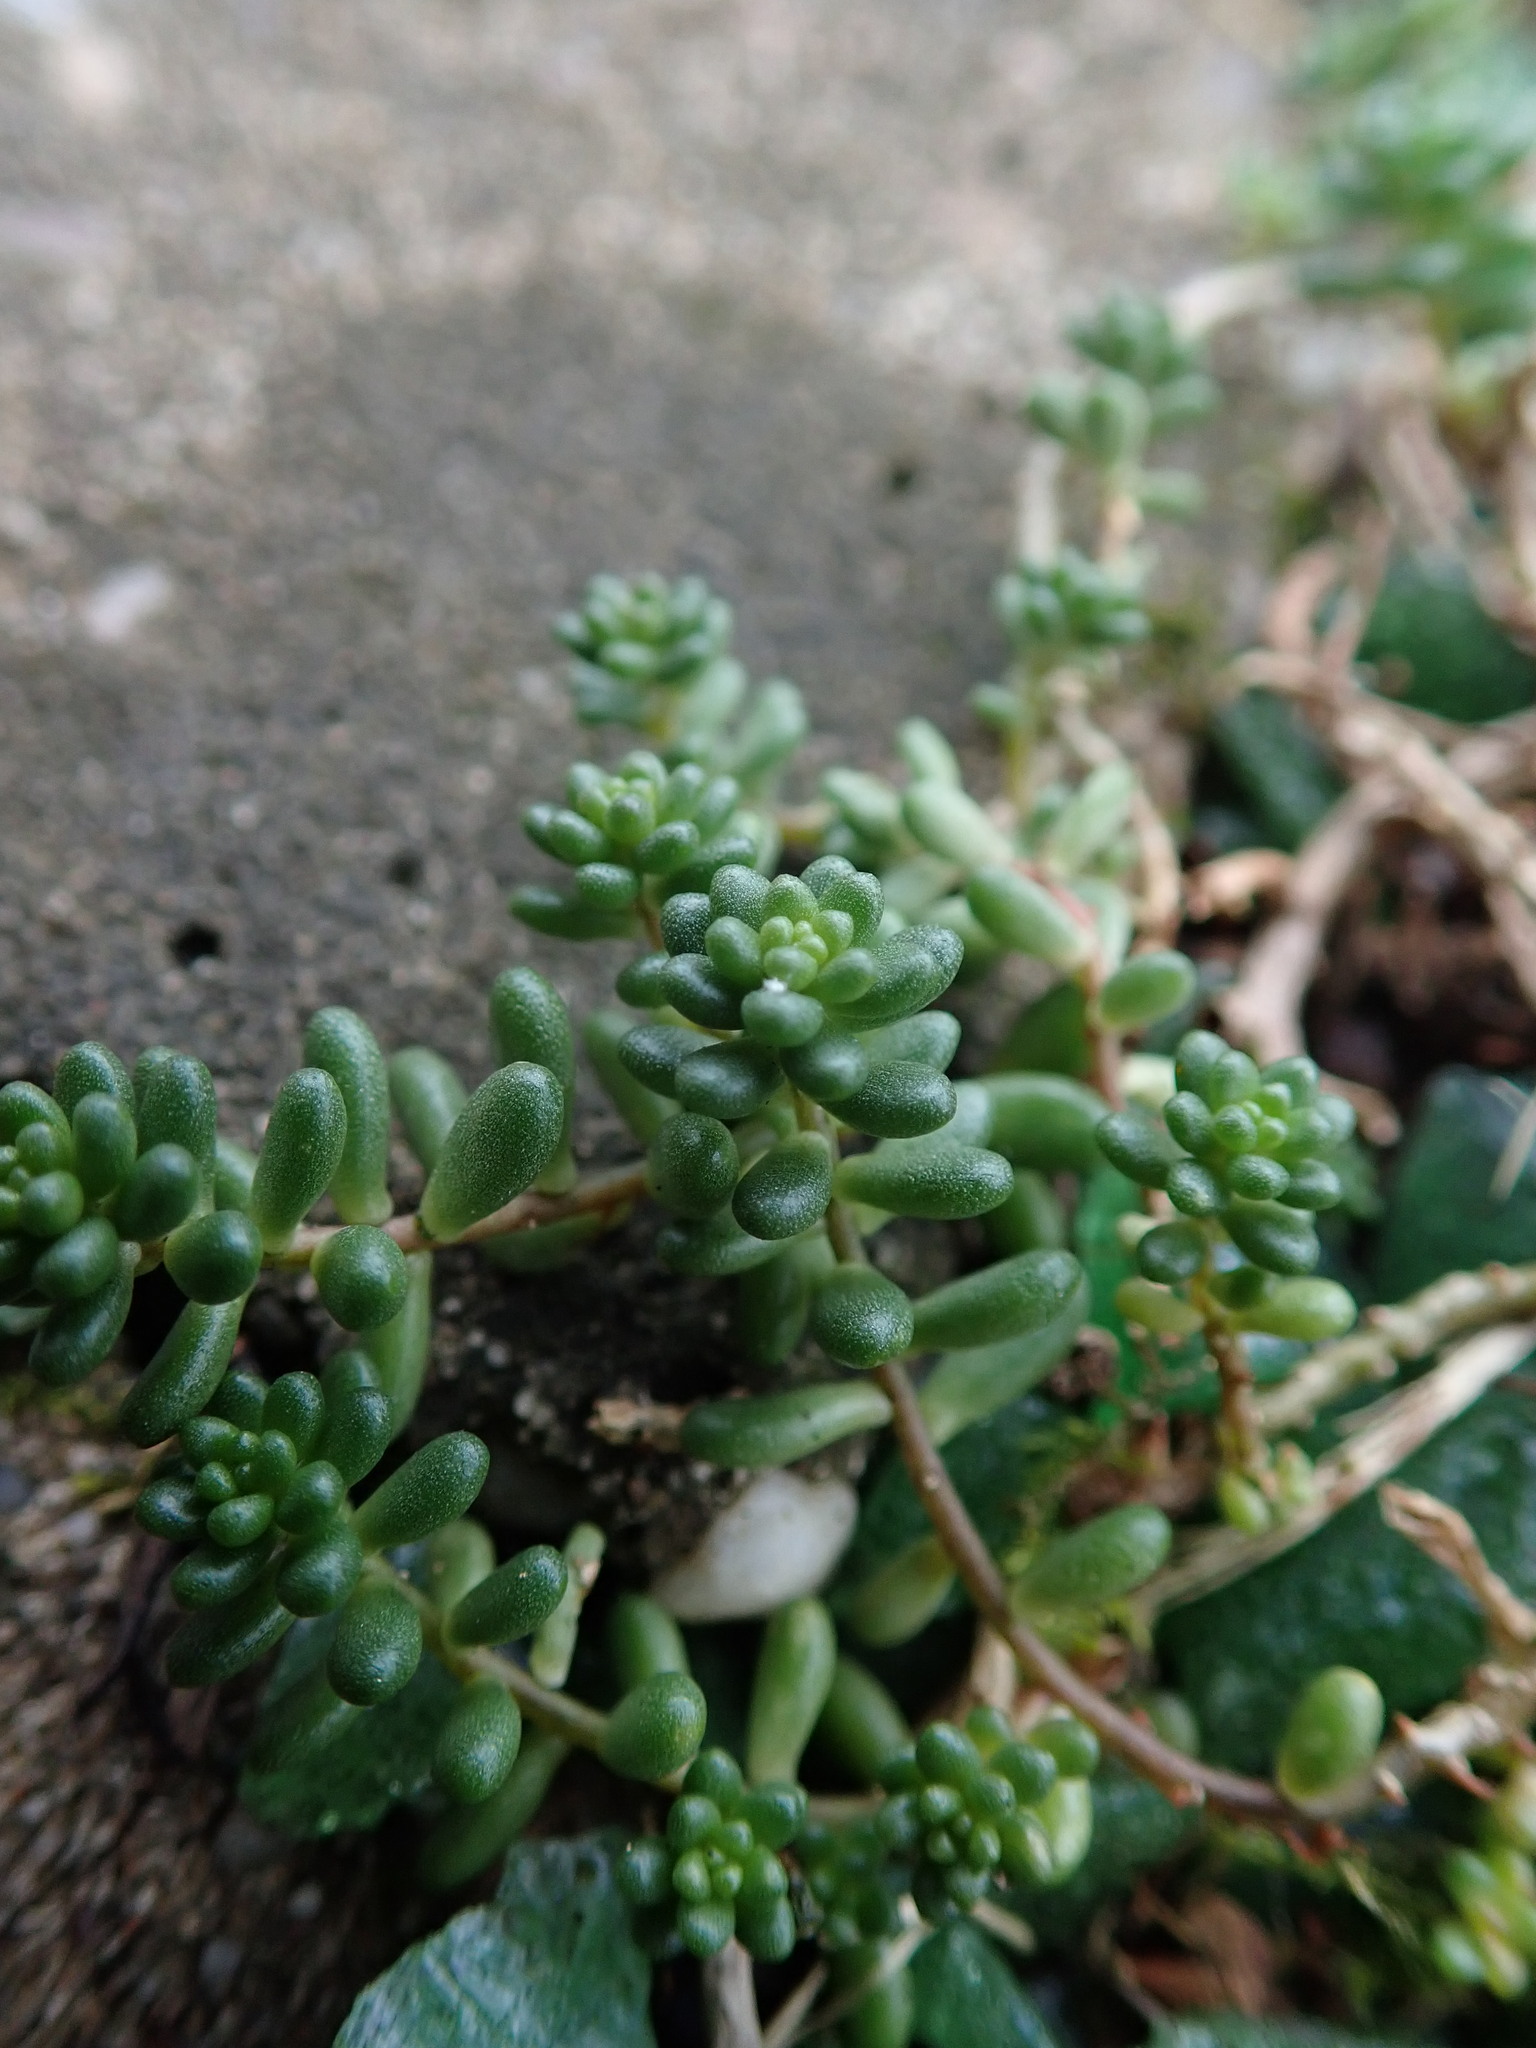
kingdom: Plantae
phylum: Tracheophyta
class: Magnoliopsida
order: Saxifragales
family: Crassulaceae
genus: Sedum
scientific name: Sedum album
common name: White stonecrop
